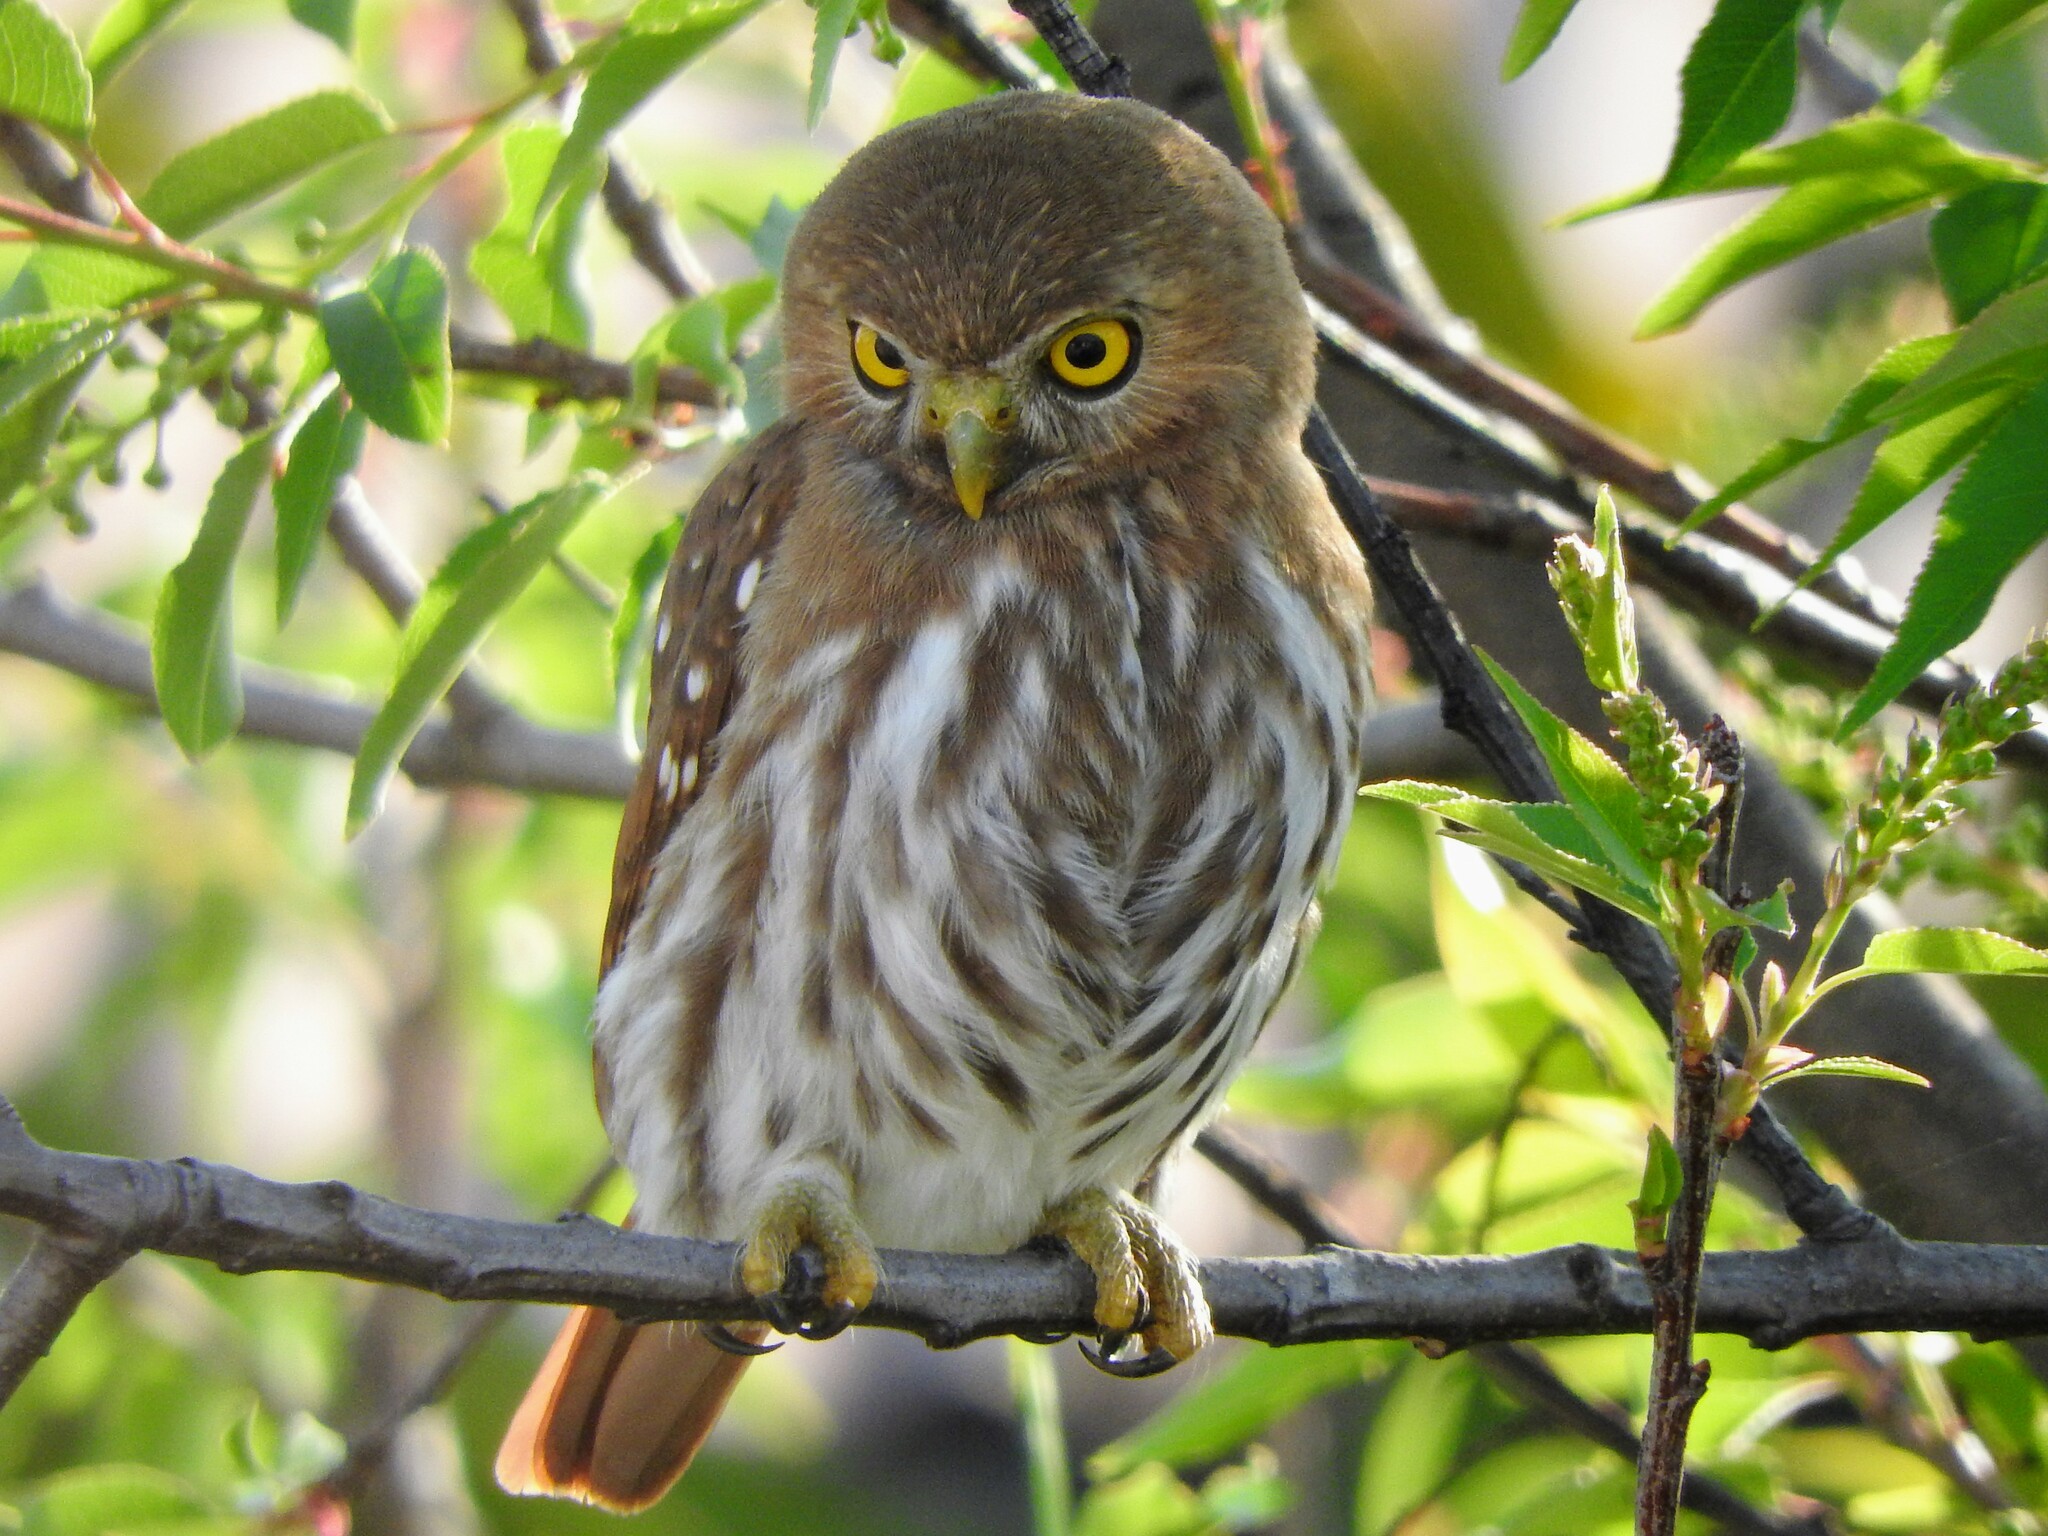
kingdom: Animalia
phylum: Chordata
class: Aves
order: Strigiformes
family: Strigidae
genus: Glaucidium
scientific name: Glaucidium brasilianum
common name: Ferruginous pygmy-owl
